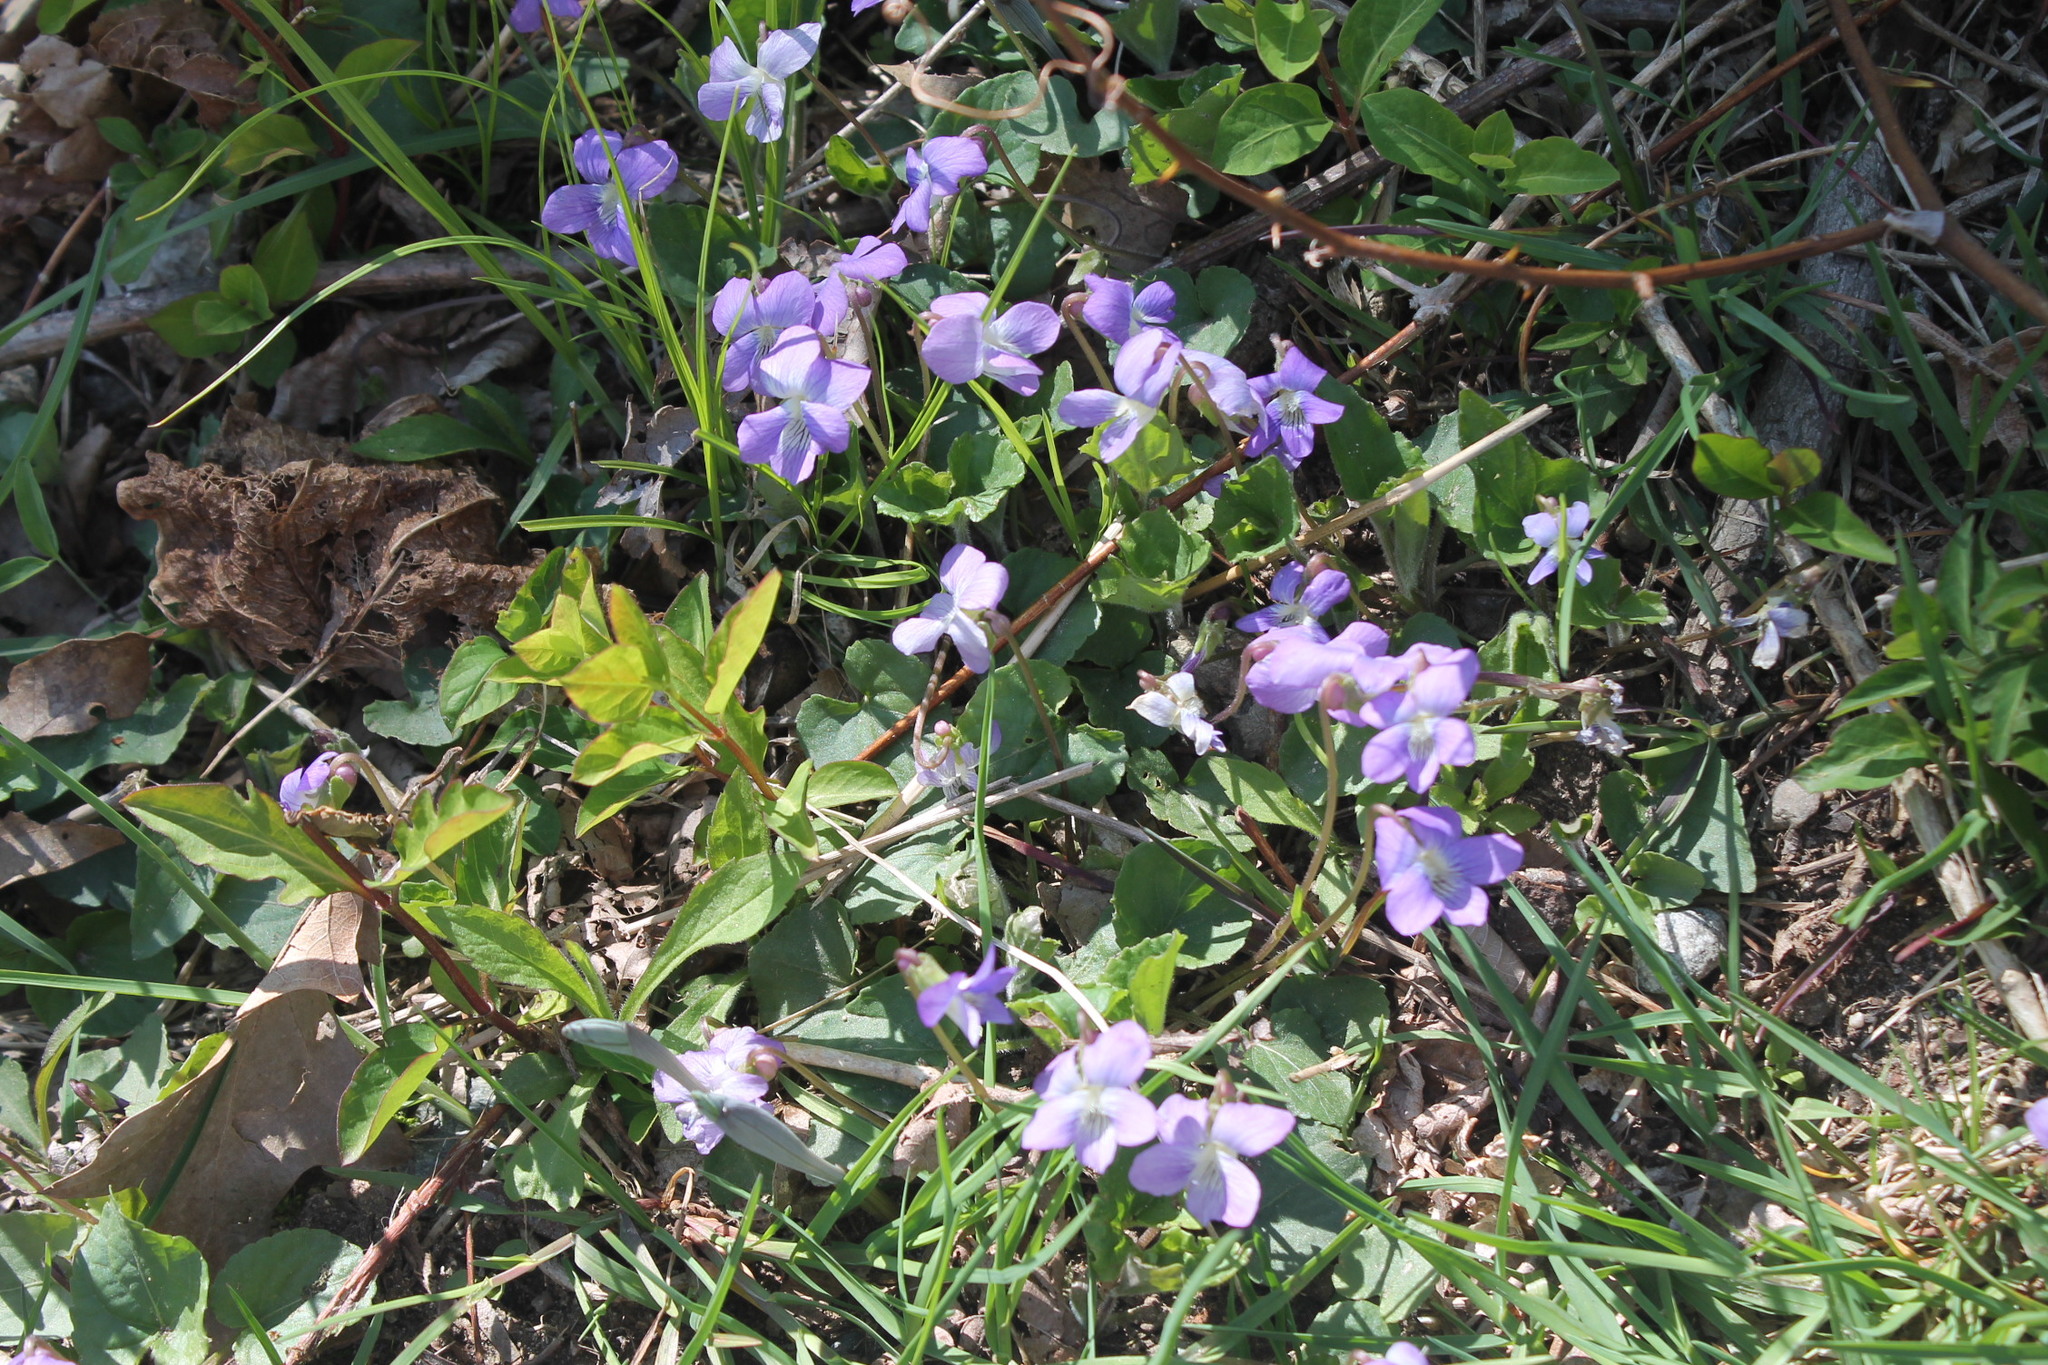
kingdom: Plantae
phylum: Tracheophyta
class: Magnoliopsida
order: Malpighiales
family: Violaceae
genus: Viola
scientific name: Viola sororia
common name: Dooryard violet
